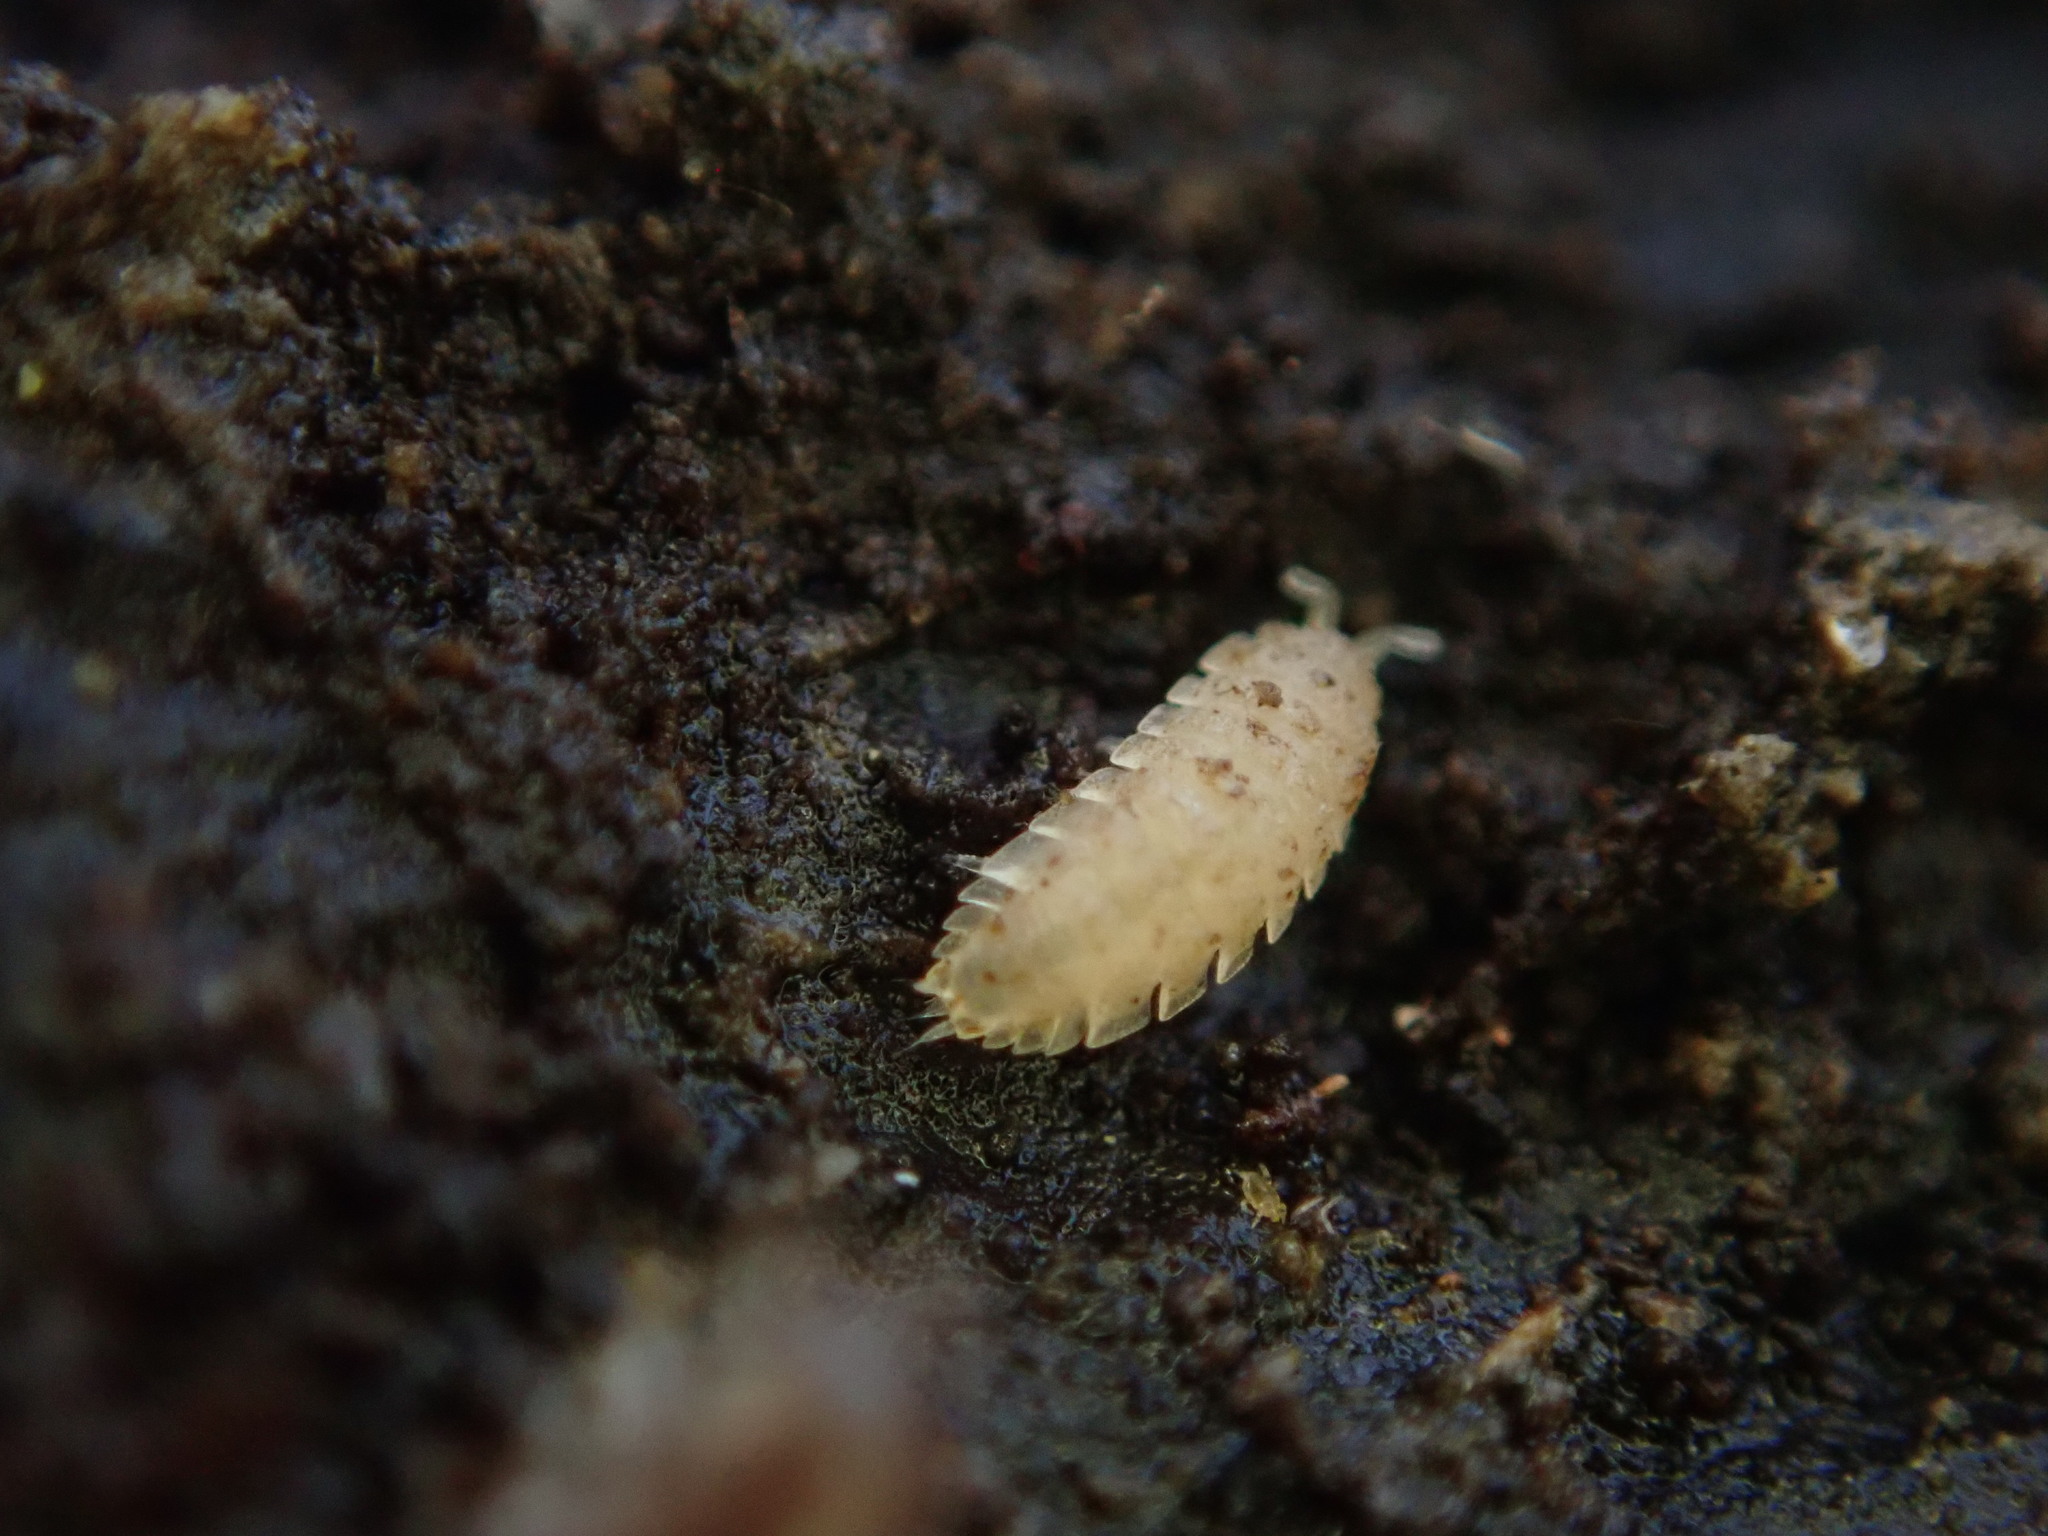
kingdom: Animalia
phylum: Arthropoda
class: Malacostraca
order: Isopoda
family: Trichoniscidae
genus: Haplophthalmus
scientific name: Haplophthalmus danicus
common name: Pillbug
